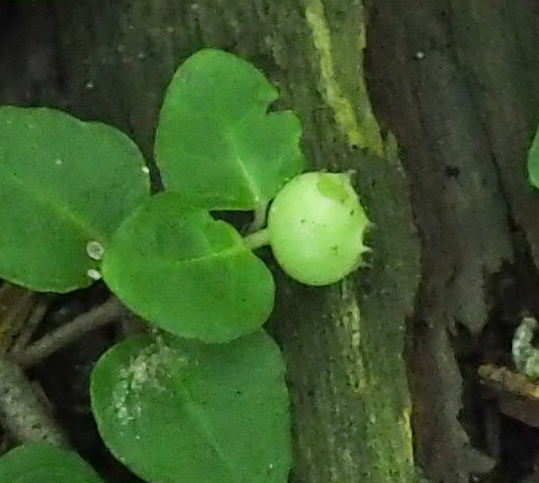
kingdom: Plantae
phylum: Tracheophyta
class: Magnoliopsida
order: Gentianales
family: Rubiaceae
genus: Mitchella
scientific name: Mitchella repens
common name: Partridge-berry
